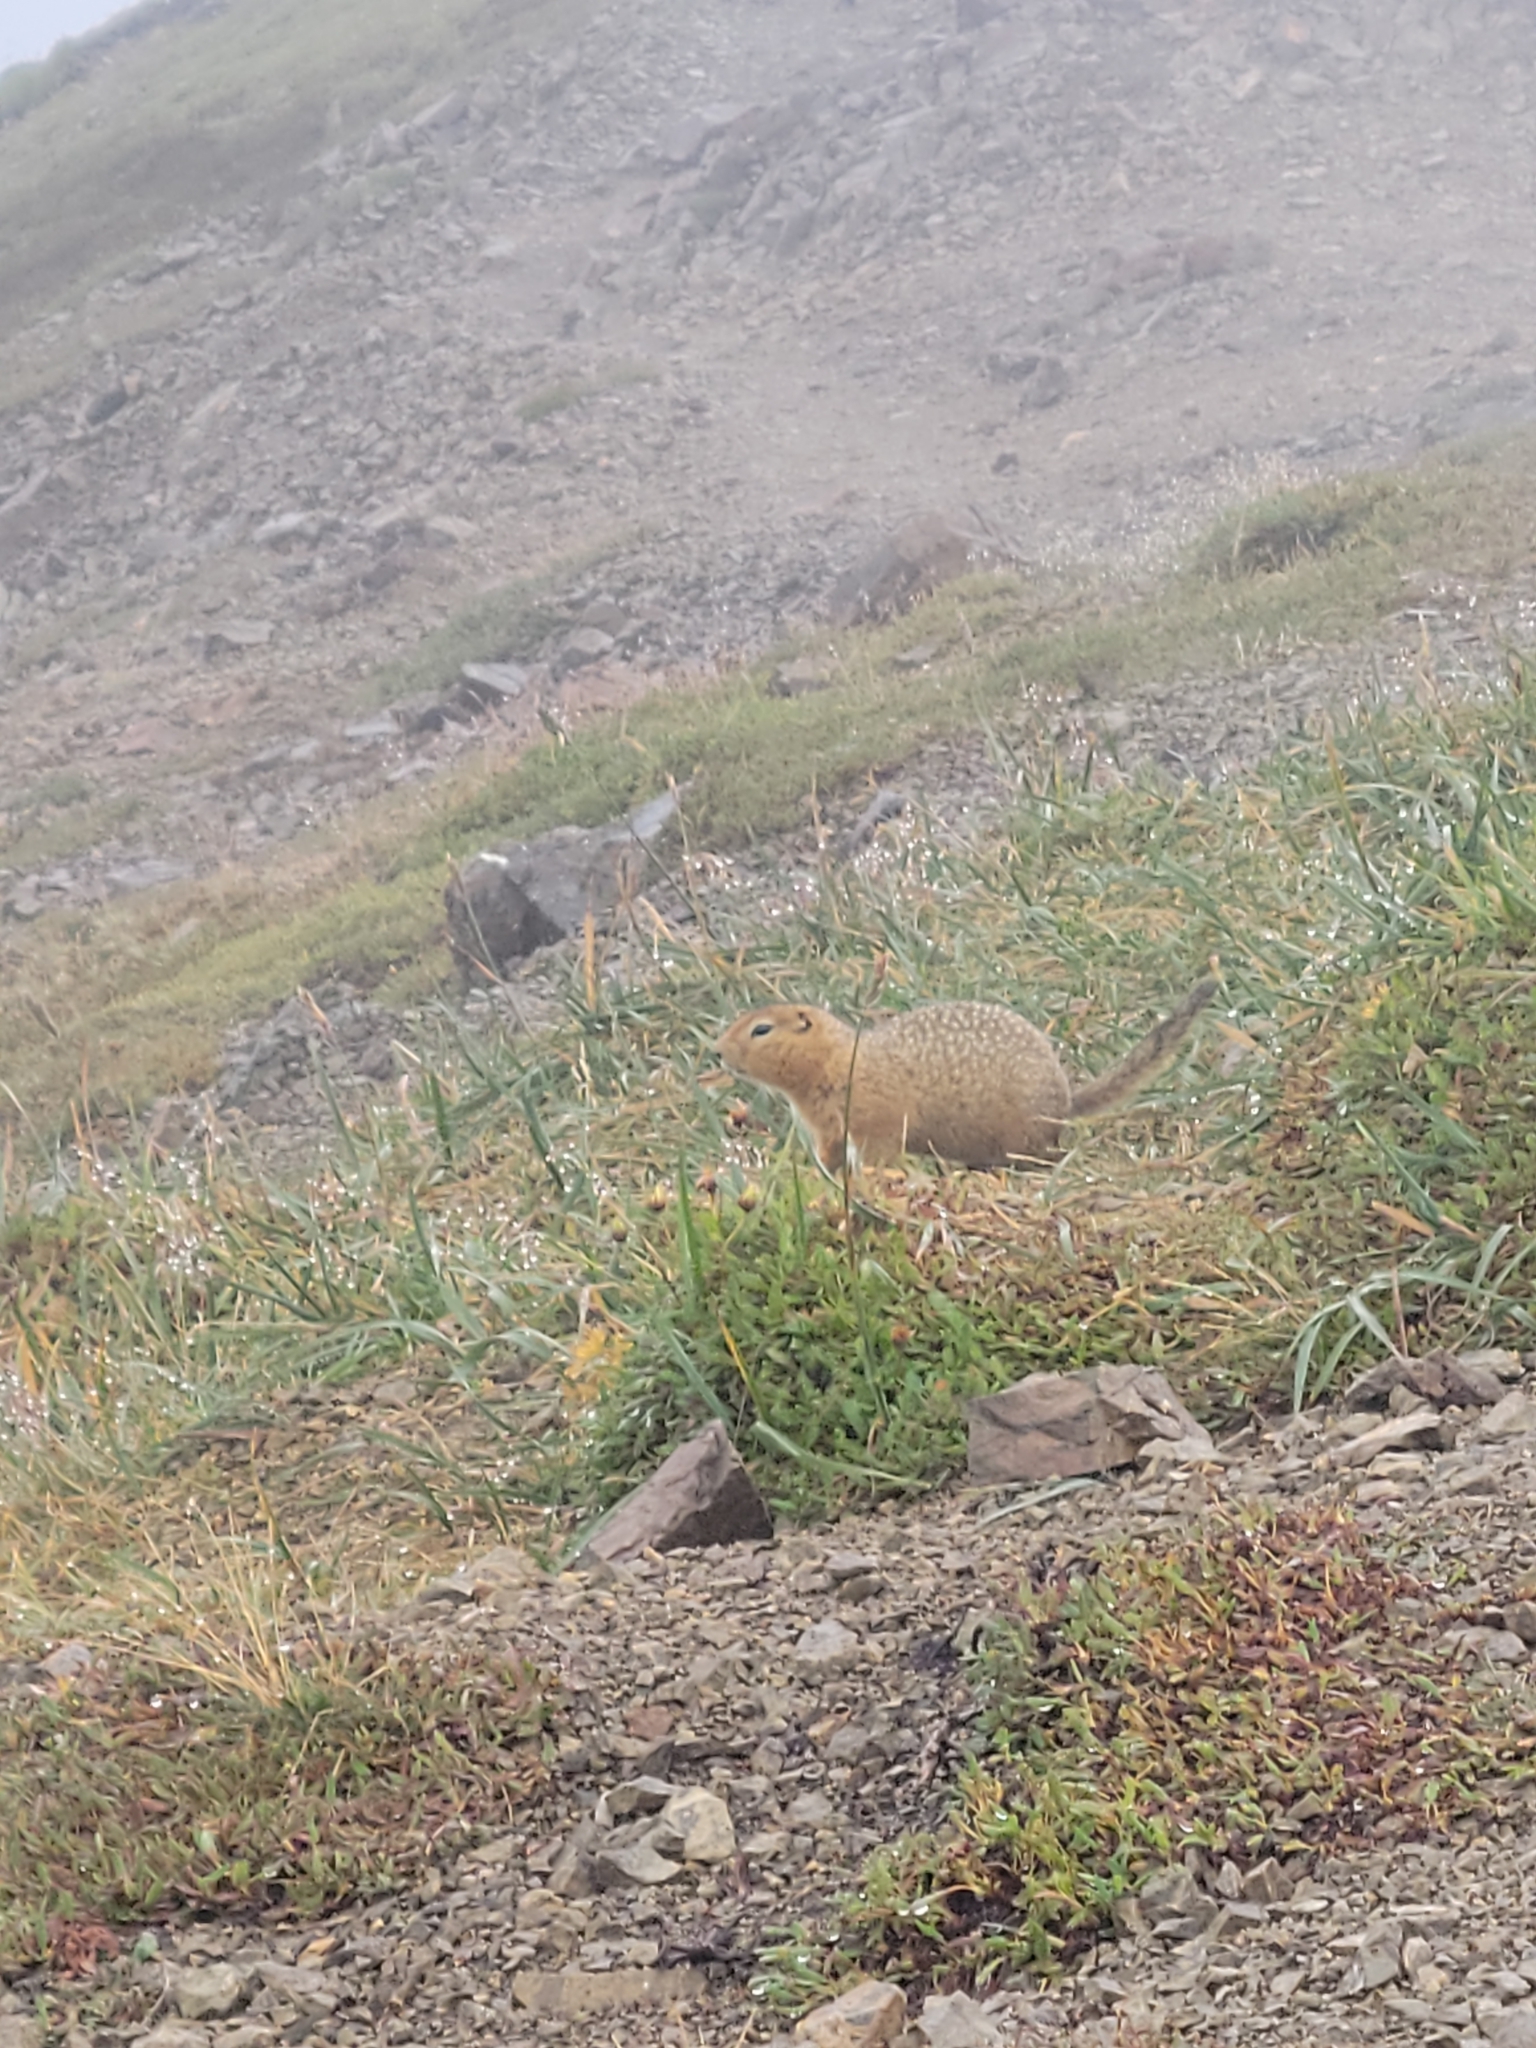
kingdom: Animalia
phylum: Chordata
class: Mammalia
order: Rodentia
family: Sciuridae
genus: Urocitellus
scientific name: Urocitellus parryii
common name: Arctic ground squirrel
